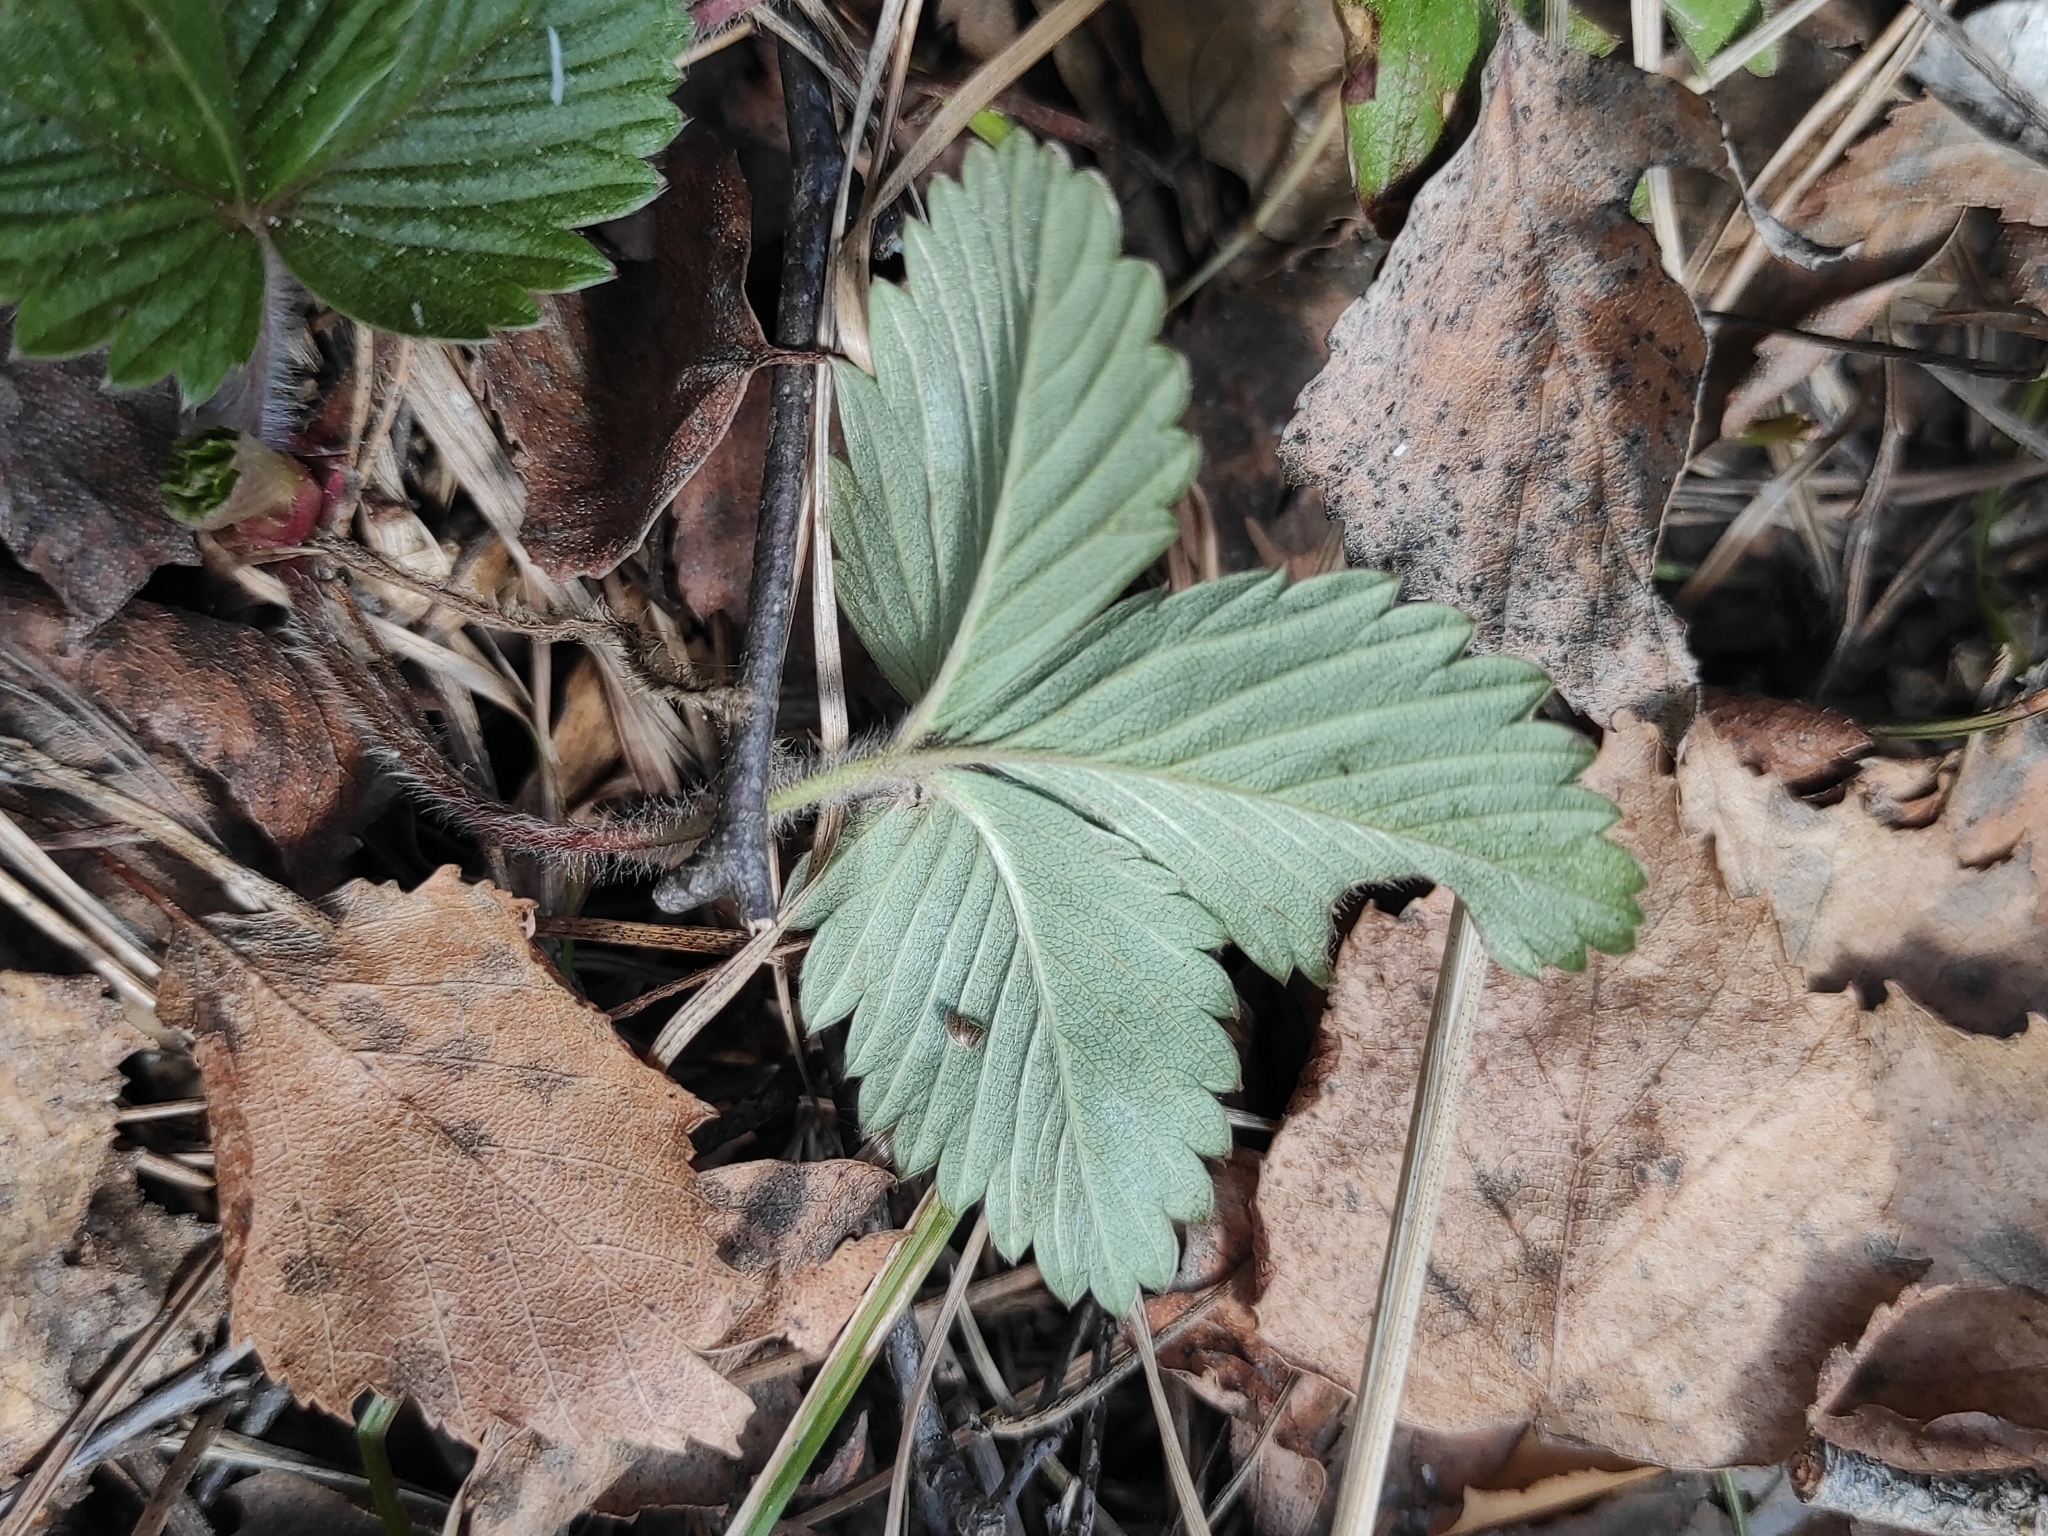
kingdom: Plantae
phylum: Tracheophyta
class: Magnoliopsida
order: Rosales
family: Rosaceae
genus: Fragaria
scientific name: Fragaria vesca
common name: Wild strawberry
